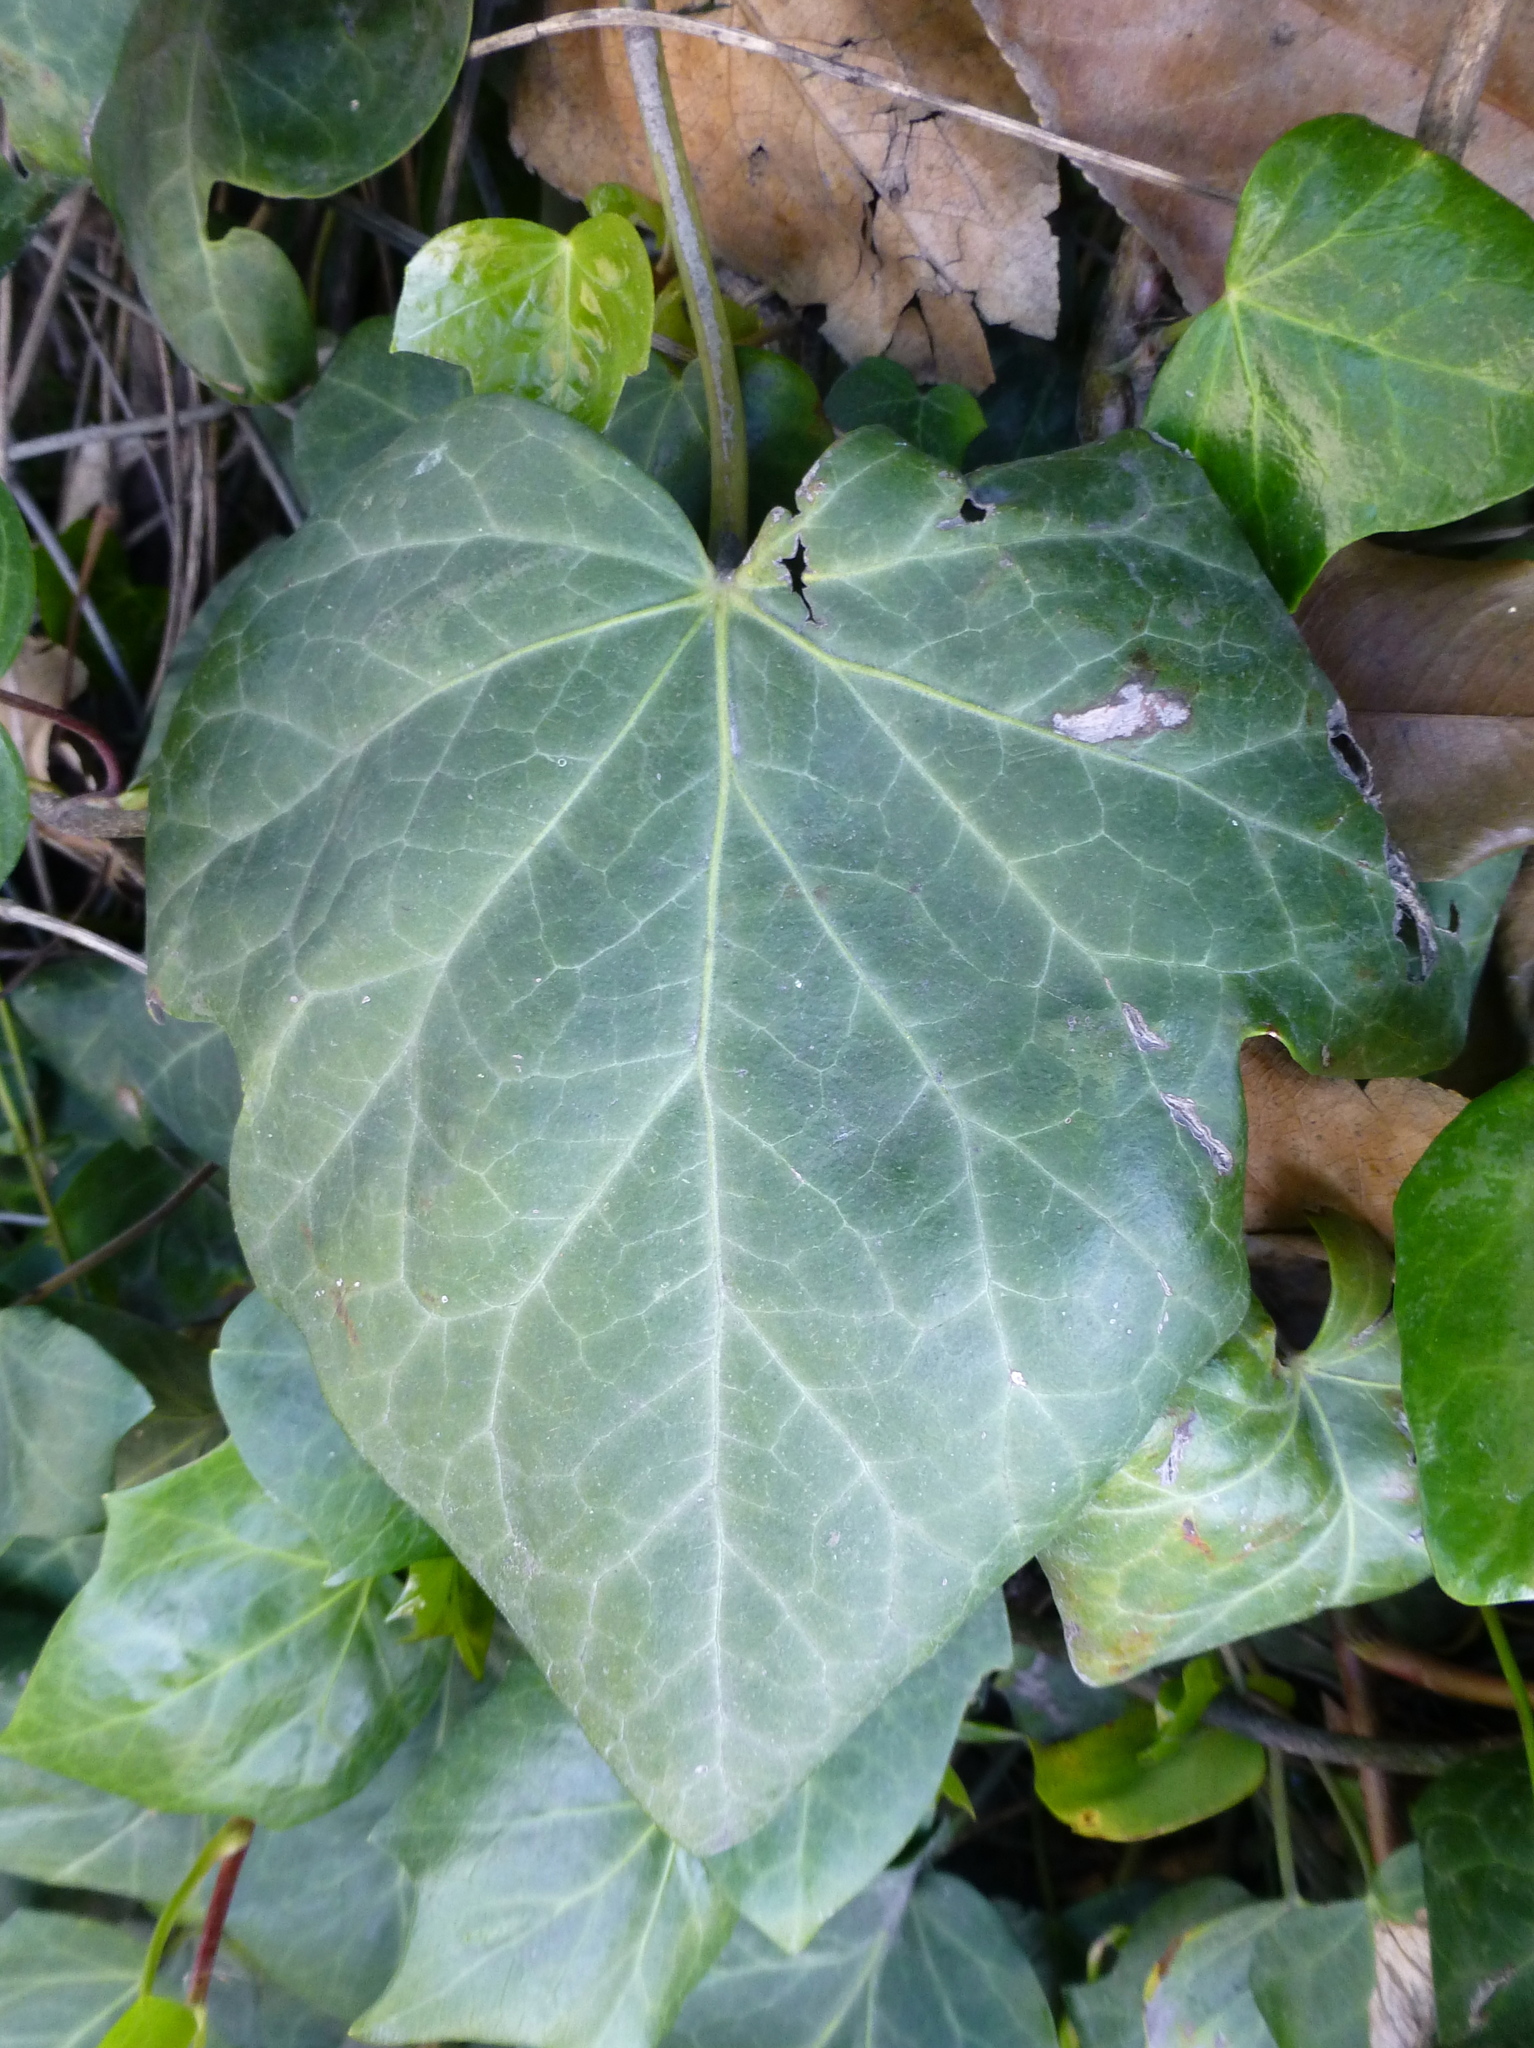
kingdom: Plantae
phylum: Tracheophyta
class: Magnoliopsida
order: Apiales
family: Araliaceae
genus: Hedera
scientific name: Hedera helix
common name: Ivy
